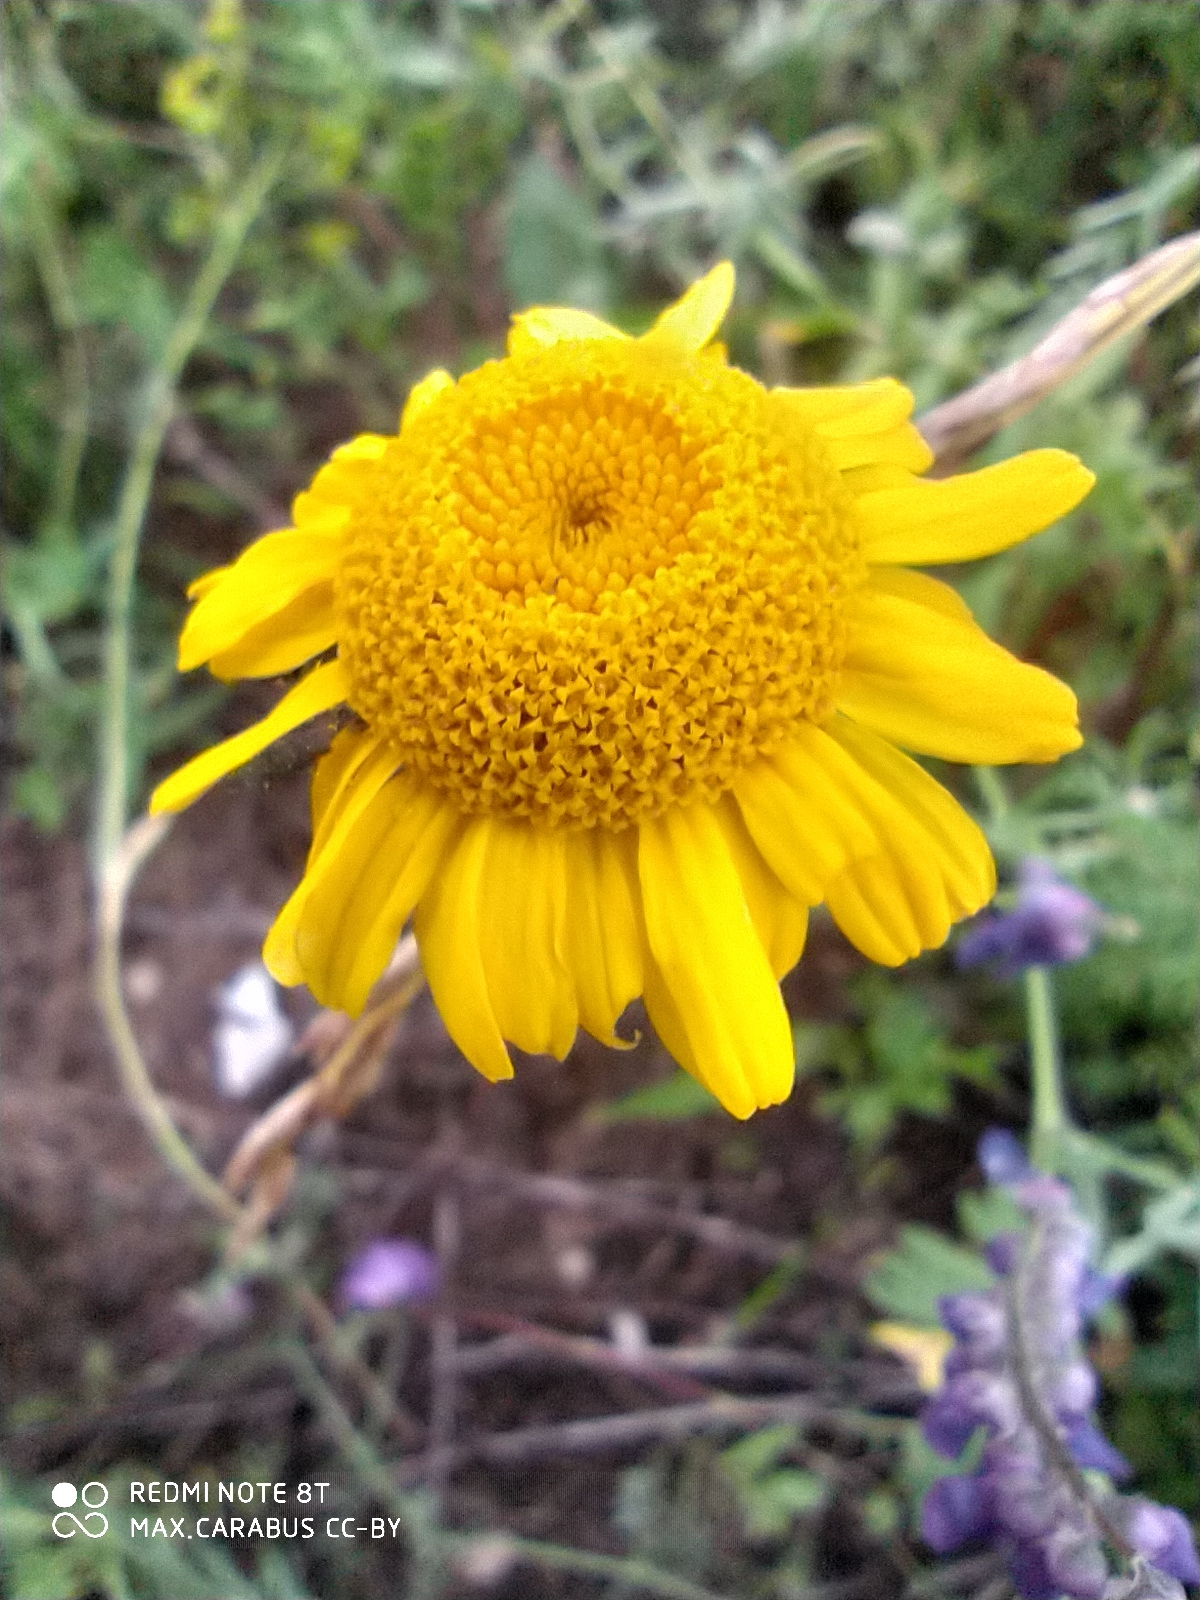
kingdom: Plantae
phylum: Tracheophyta
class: Magnoliopsida
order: Asterales
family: Asteraceae
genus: Cota
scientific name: Cota tinctoria
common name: Golden chamomile
